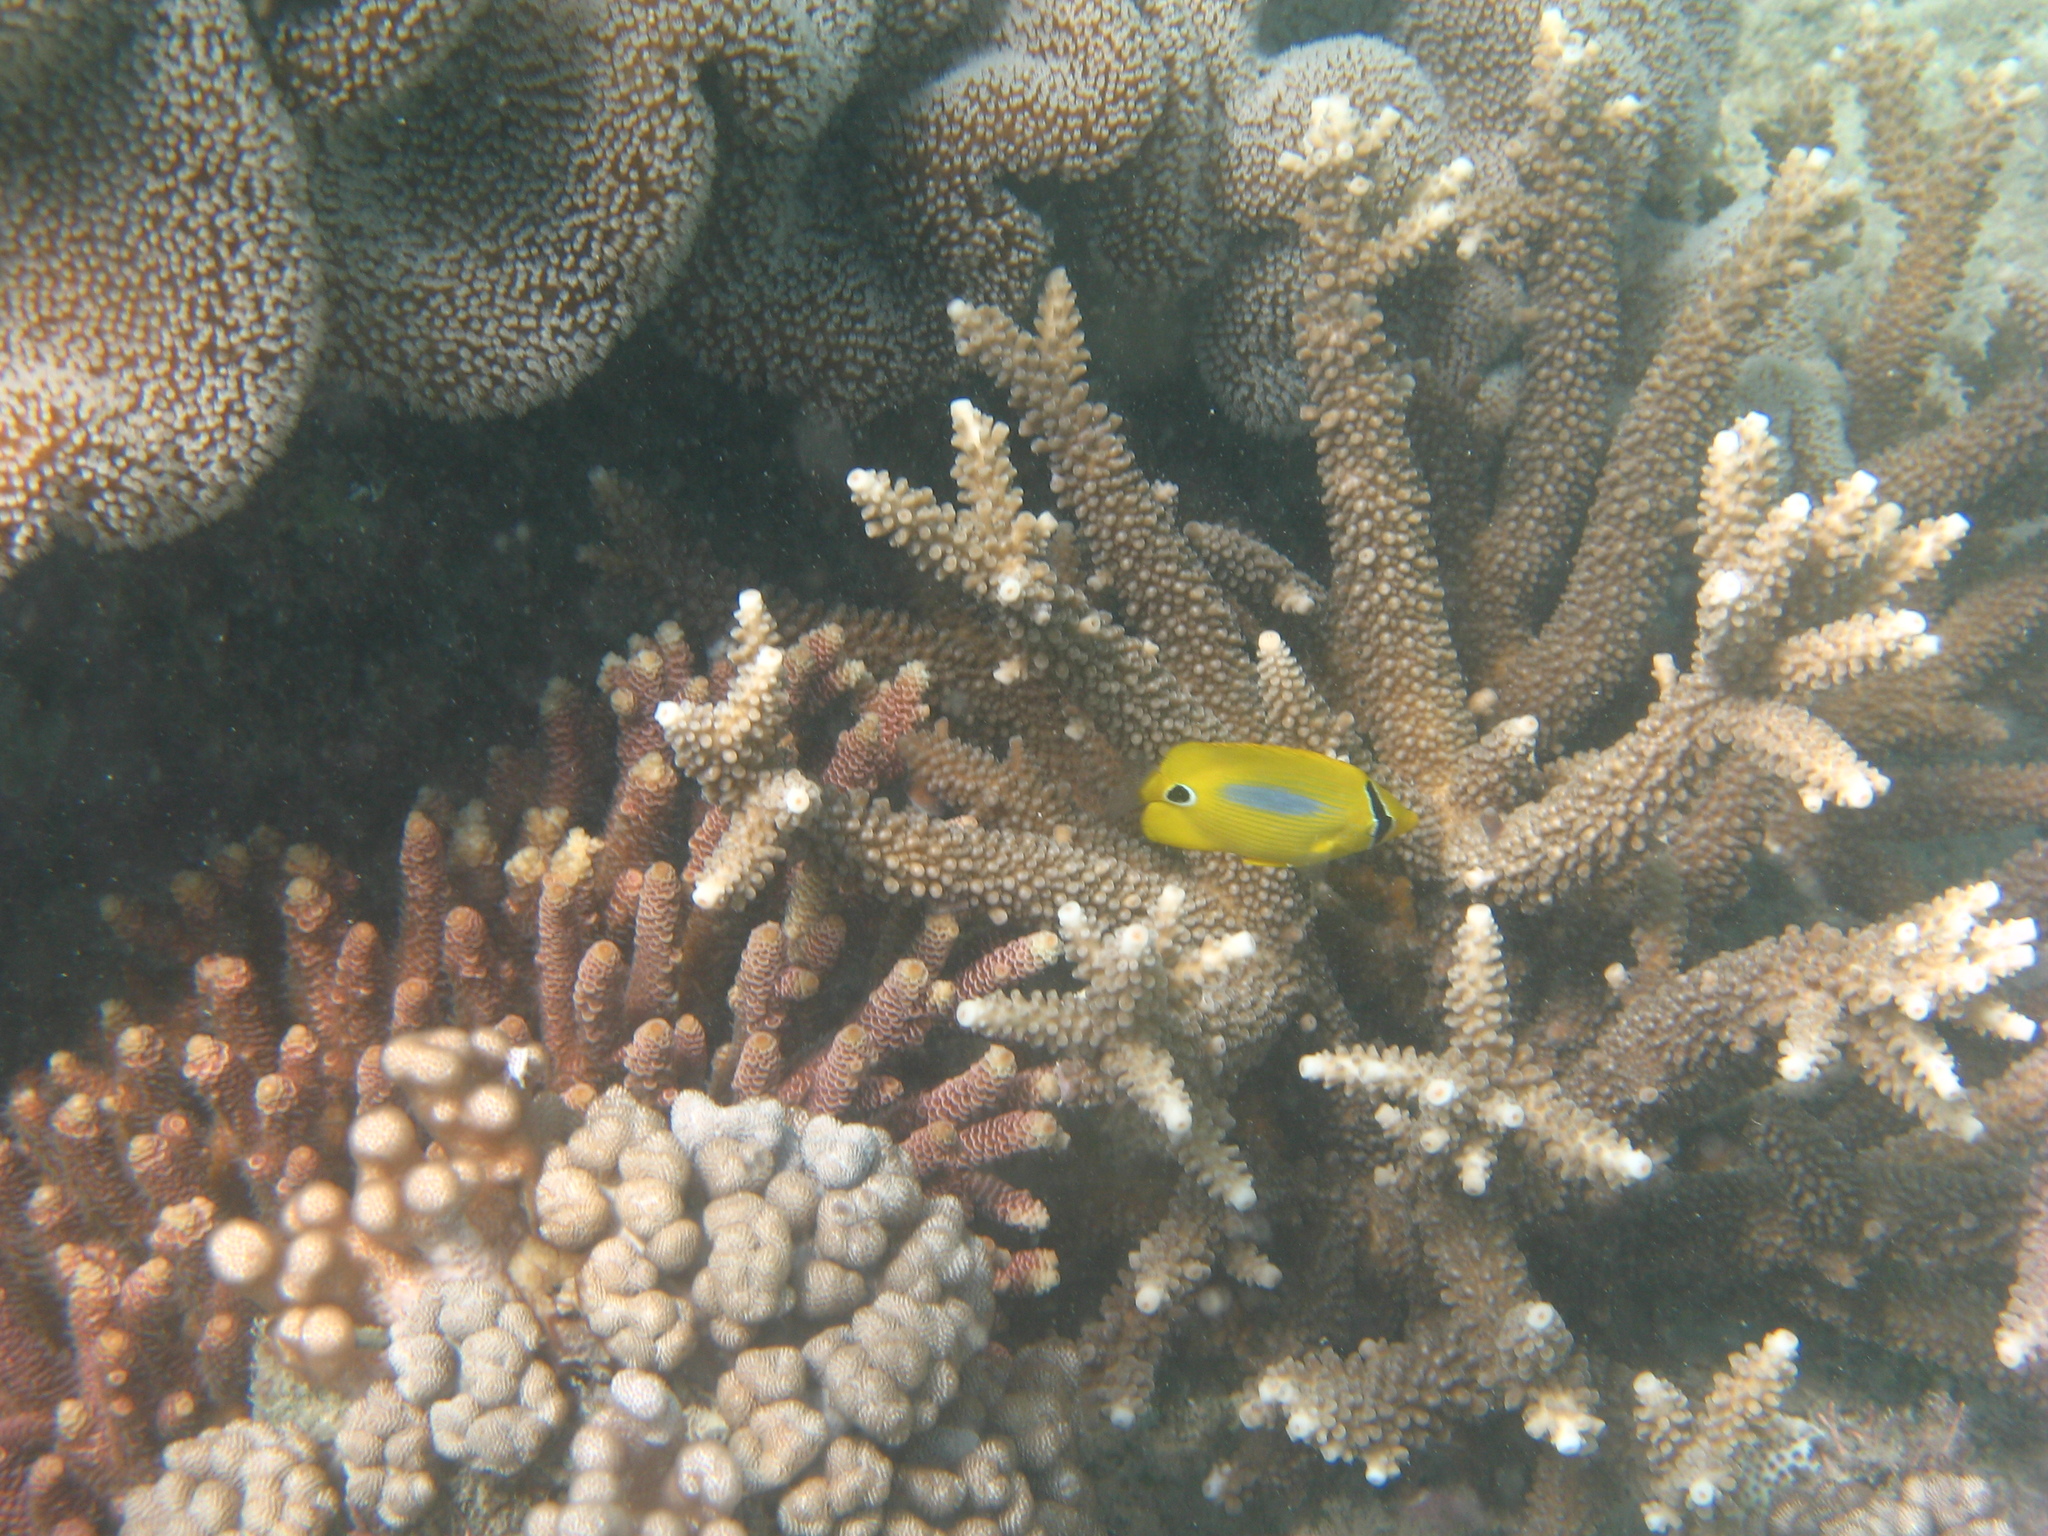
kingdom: Animalia
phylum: Chordata
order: Perciformes
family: Chaetodontidae
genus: Chaetodon
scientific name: Chaetodon plebeius
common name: Bluespot butterflyfish
